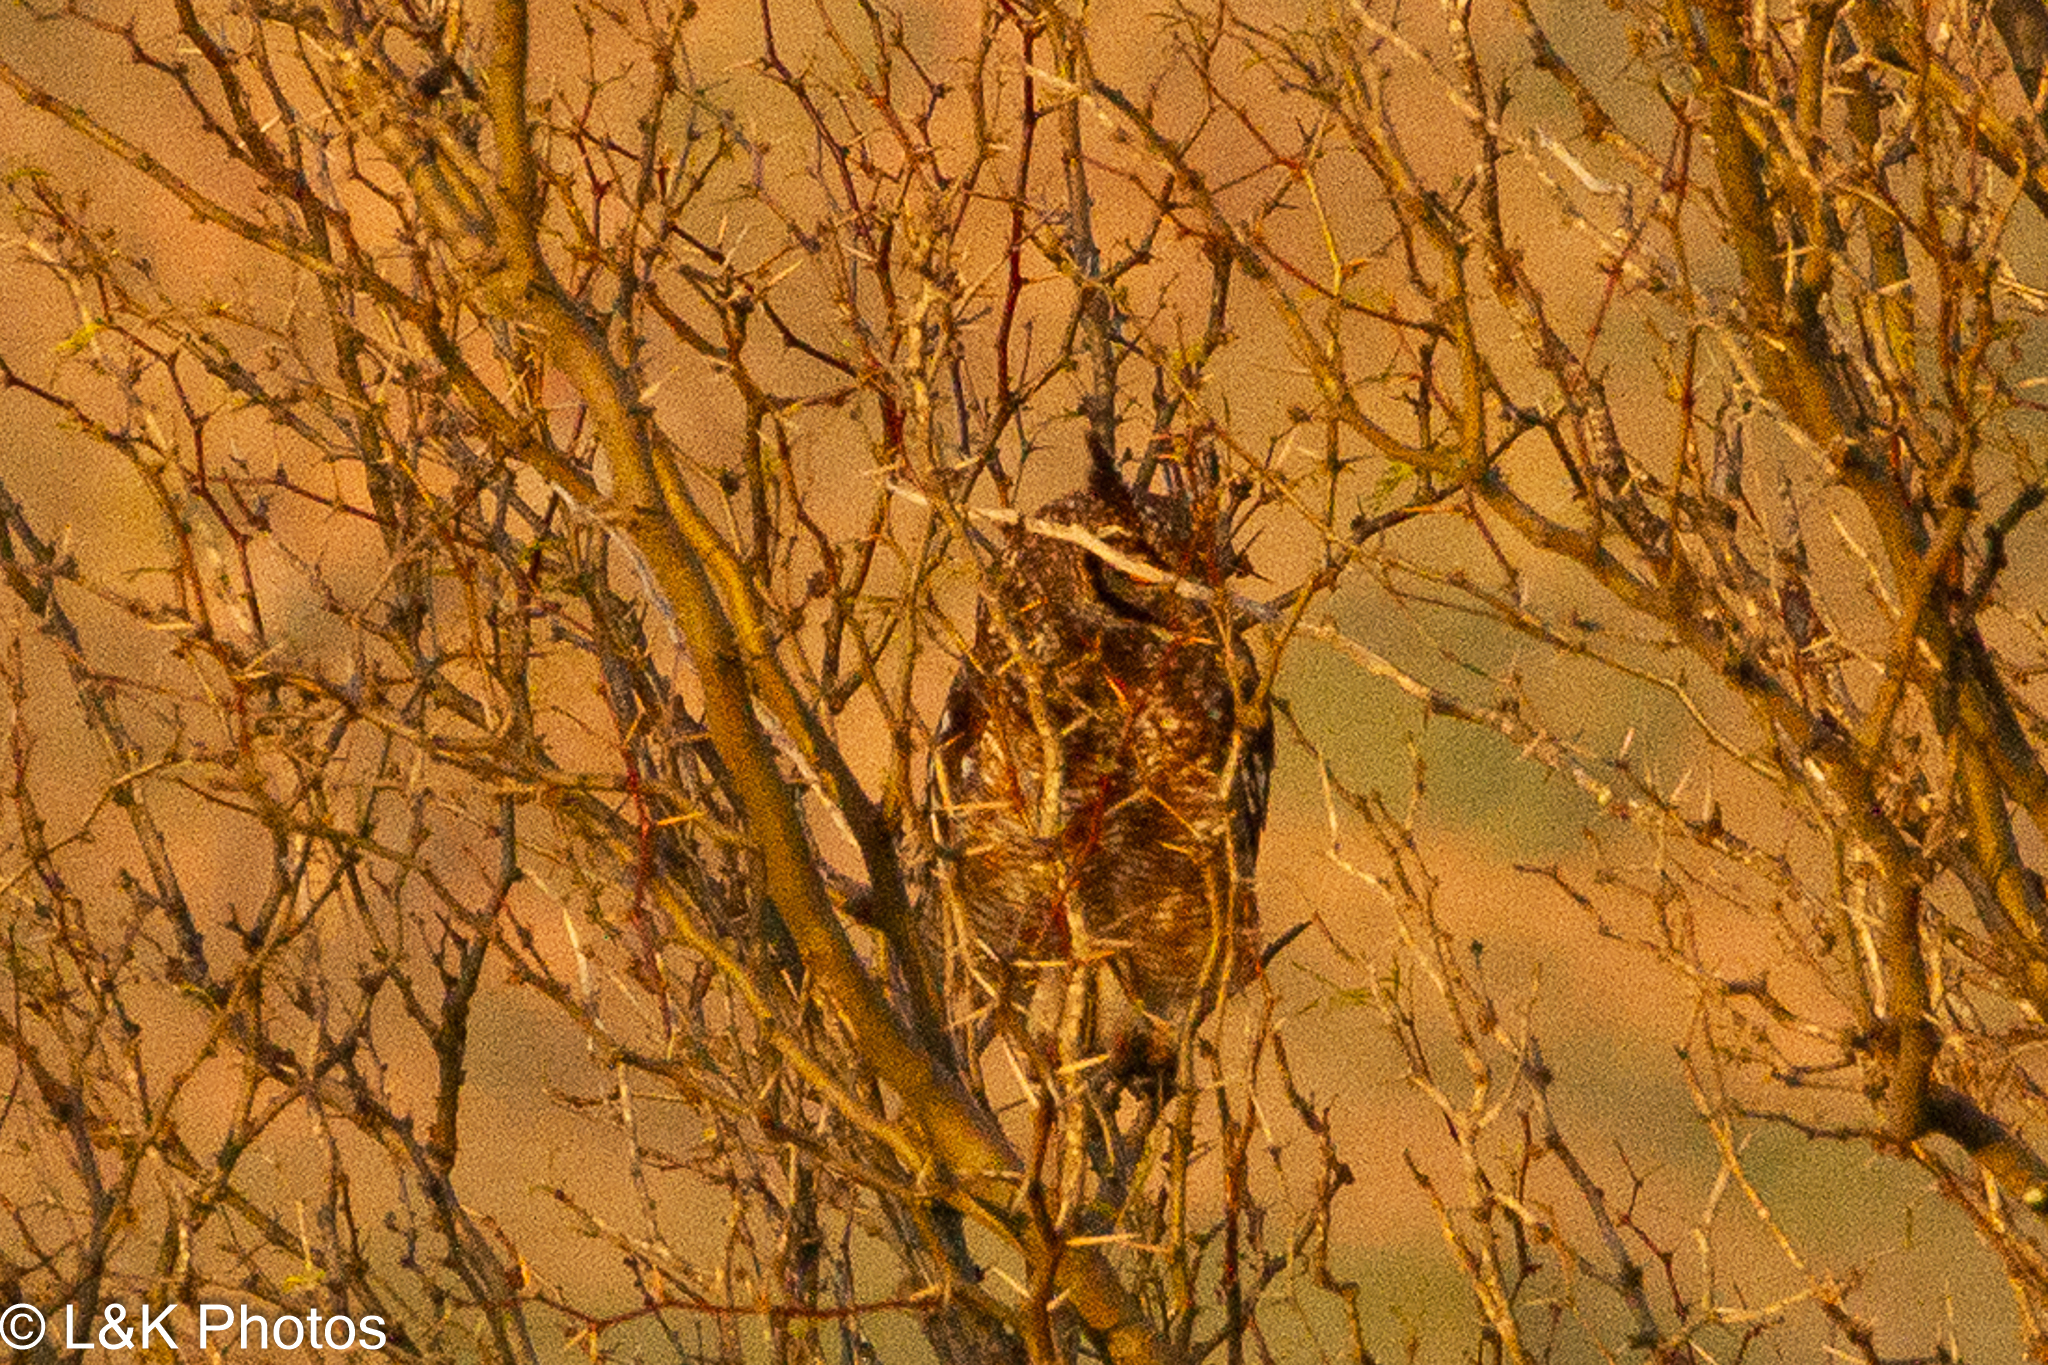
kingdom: Animalia
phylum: Chordata
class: Aves
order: Strigiformes
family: Strigidae
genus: Bubo
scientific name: Bubo africanus
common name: Spotted eagle-owl
